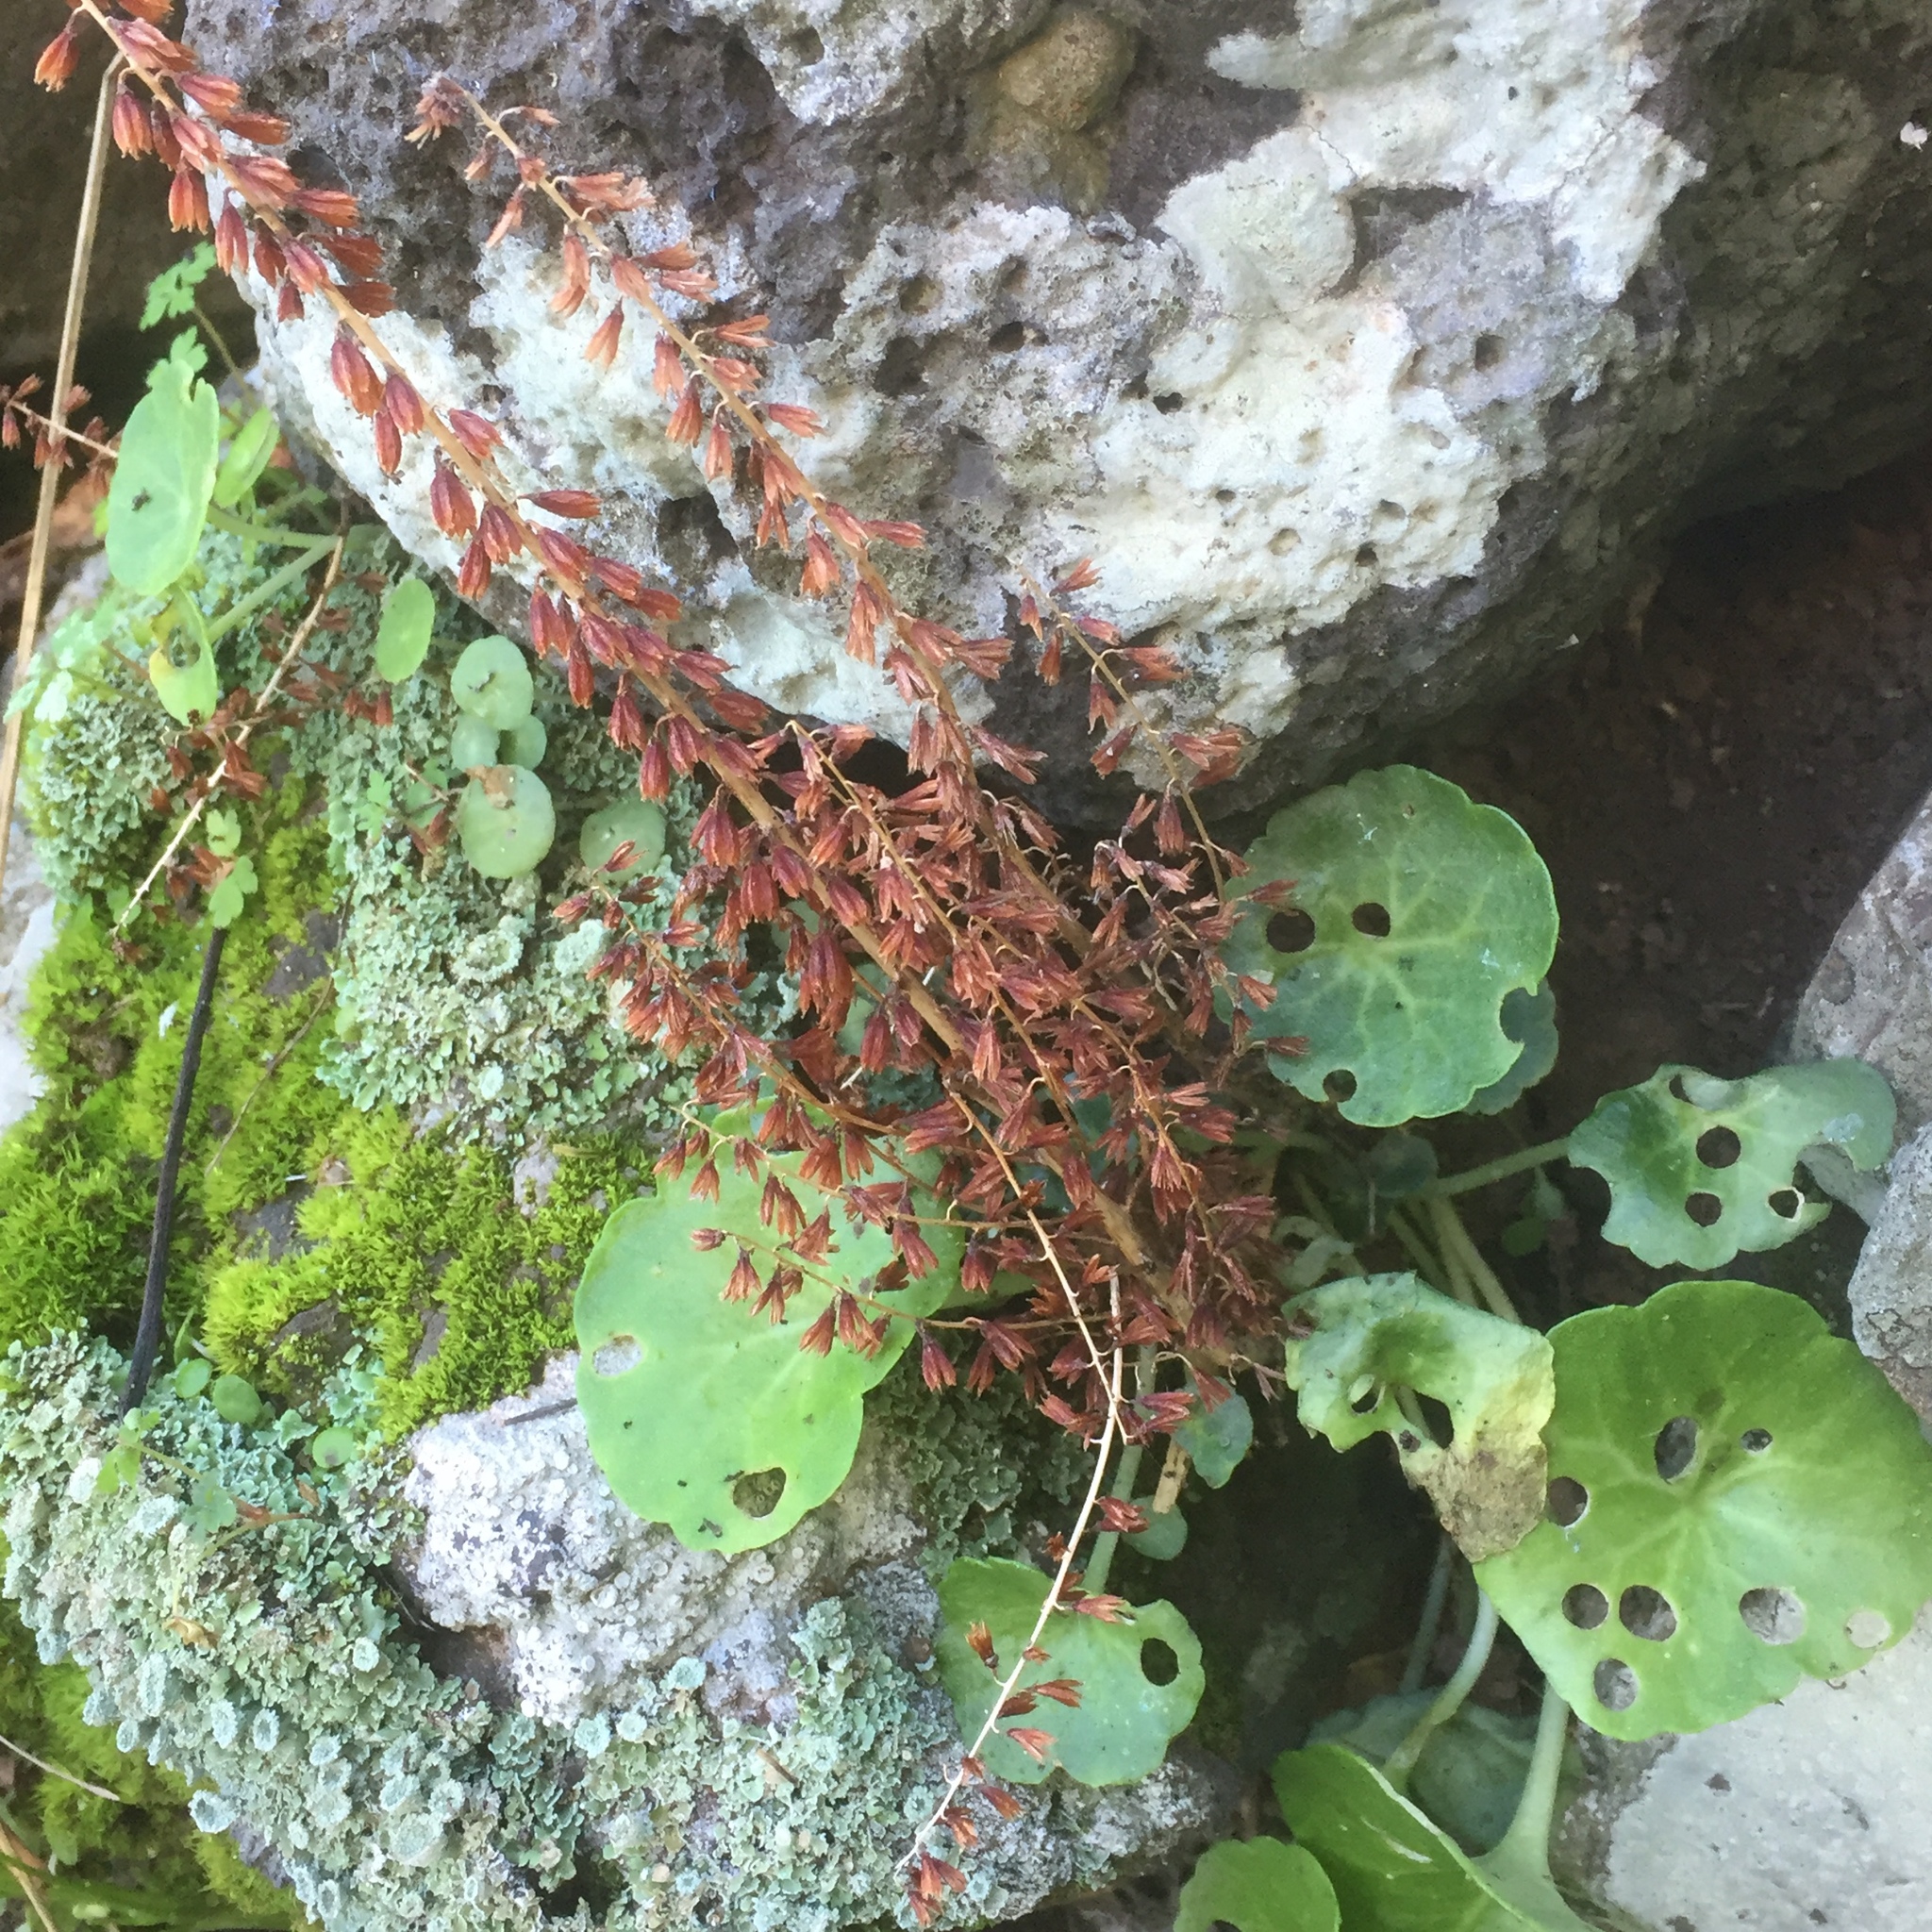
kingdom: Plantae
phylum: Tracheophyta
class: Magnoliopsida
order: Saxifragales
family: Crassulaceae
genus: Umbilicus
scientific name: Umbilicus rupestris
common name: Navelwort
